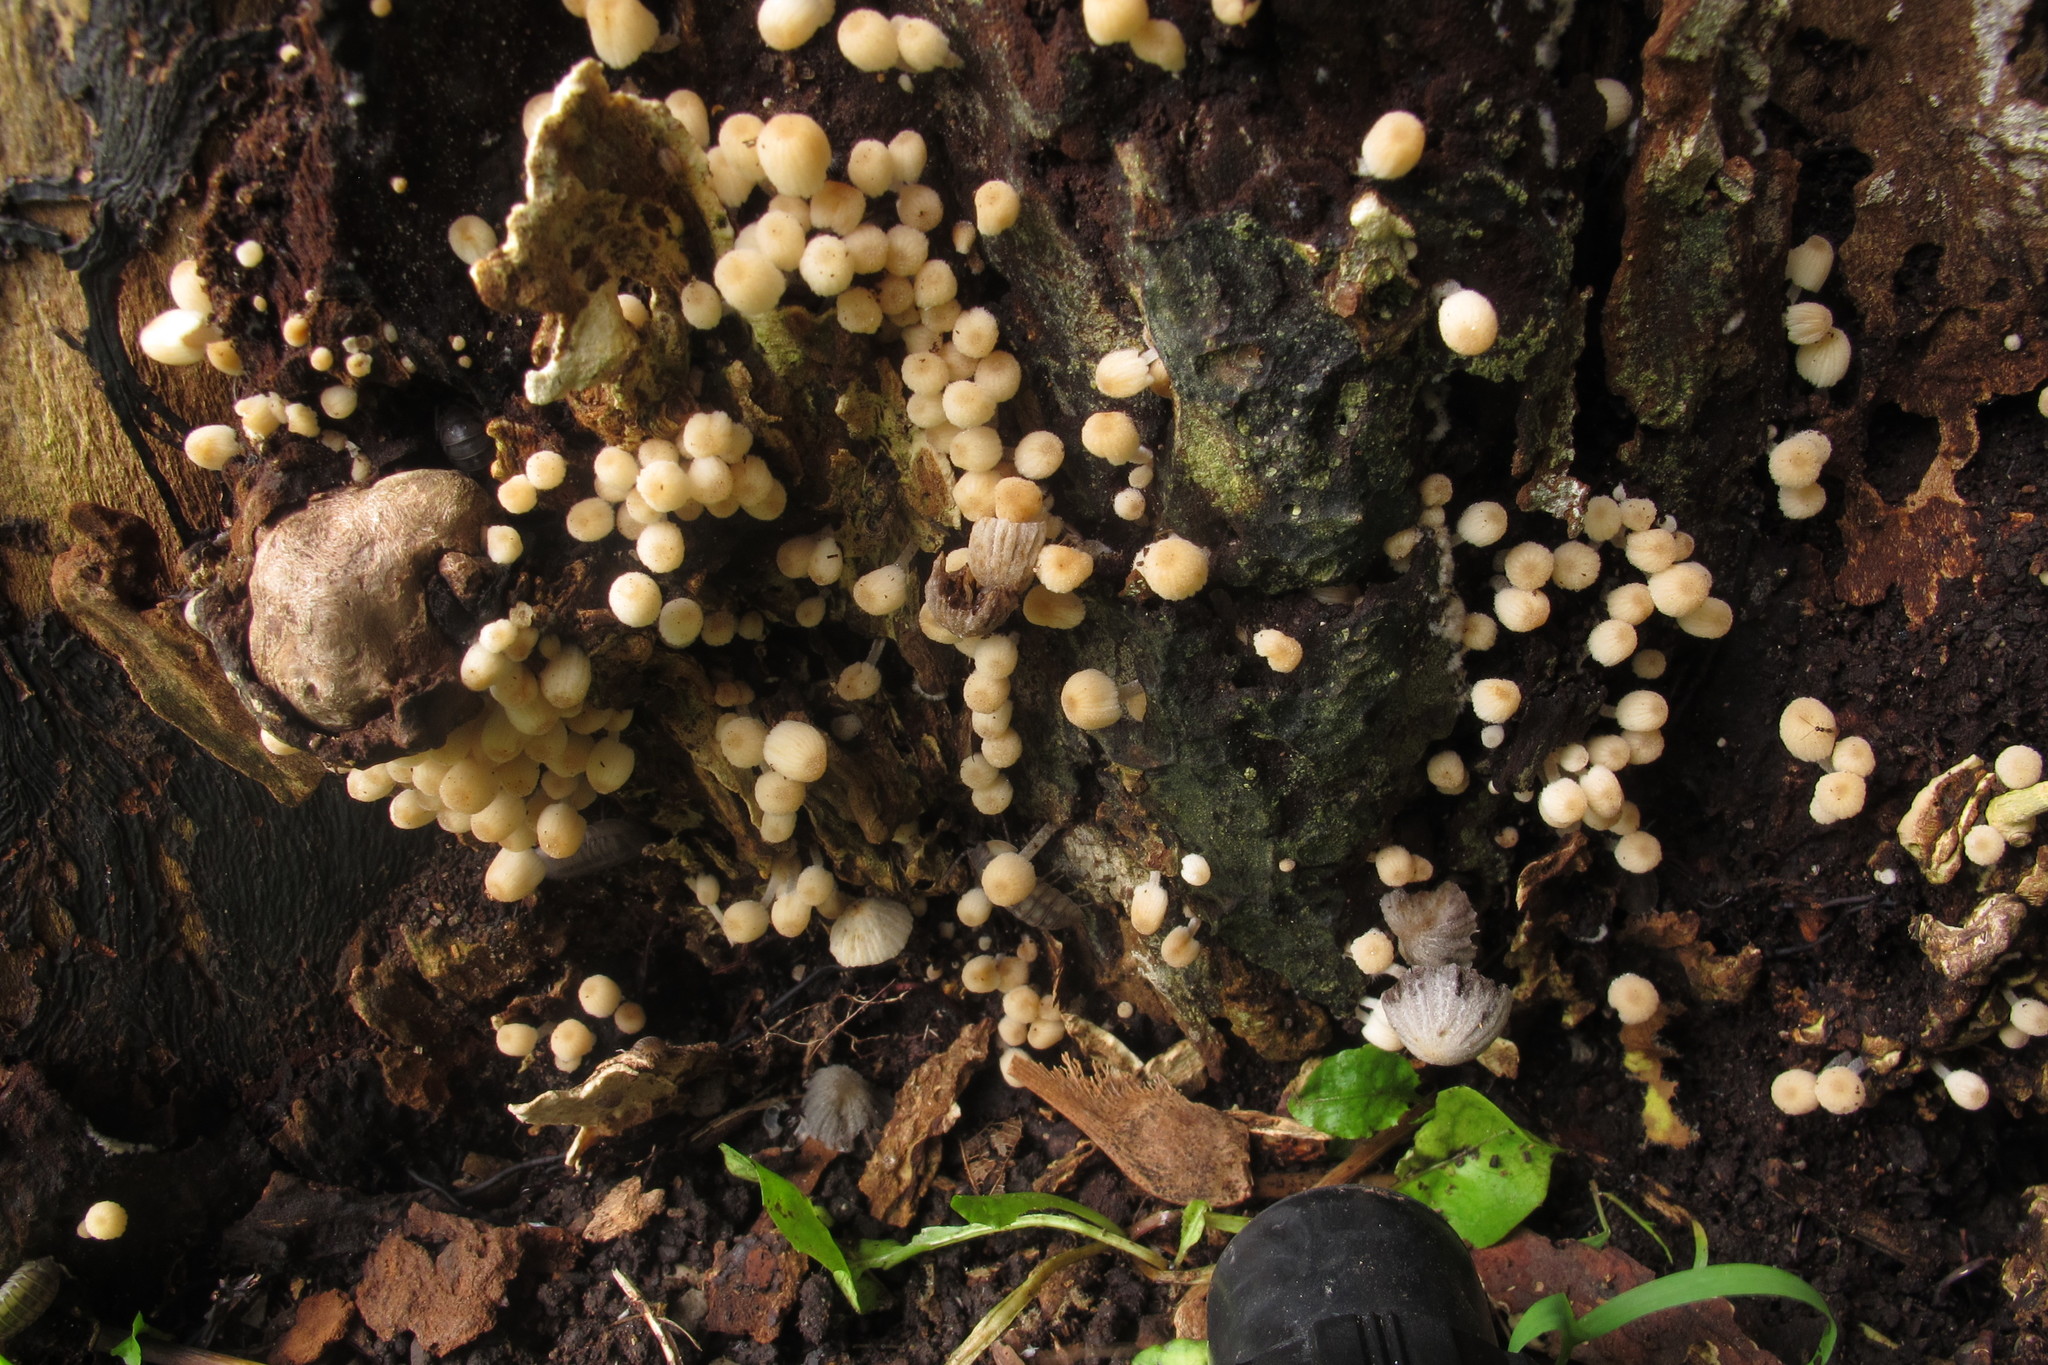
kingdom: Fungi
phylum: Basidiomycota
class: Agaricomycetes
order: Agaricales
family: Psathyrellaceae
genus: Coprinellus
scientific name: Coprinellus disseminatus
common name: Fairies' bonnets
